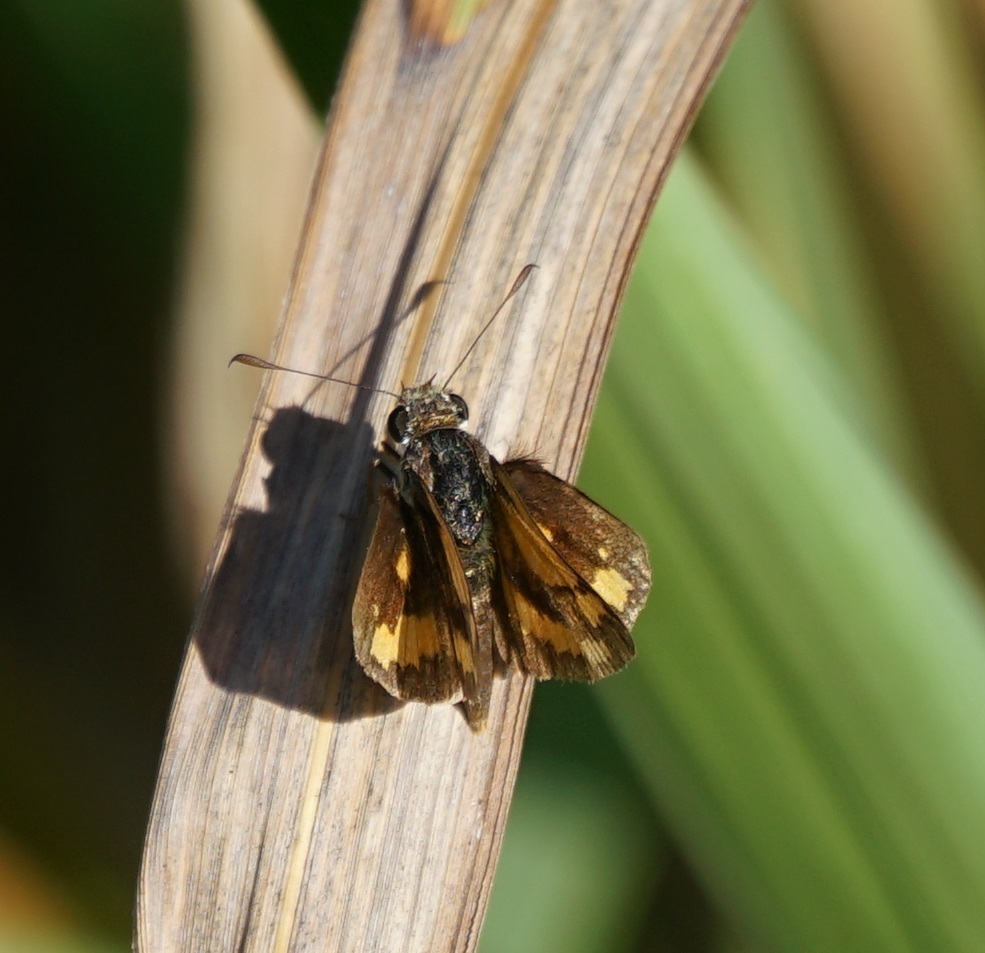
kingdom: Animalia
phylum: Arthropoda
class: Insecta
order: Lepidoptera
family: Hesperiidae
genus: Ocybadistes
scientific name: Ocybadistes walkeri
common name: Yellow-banded dart
